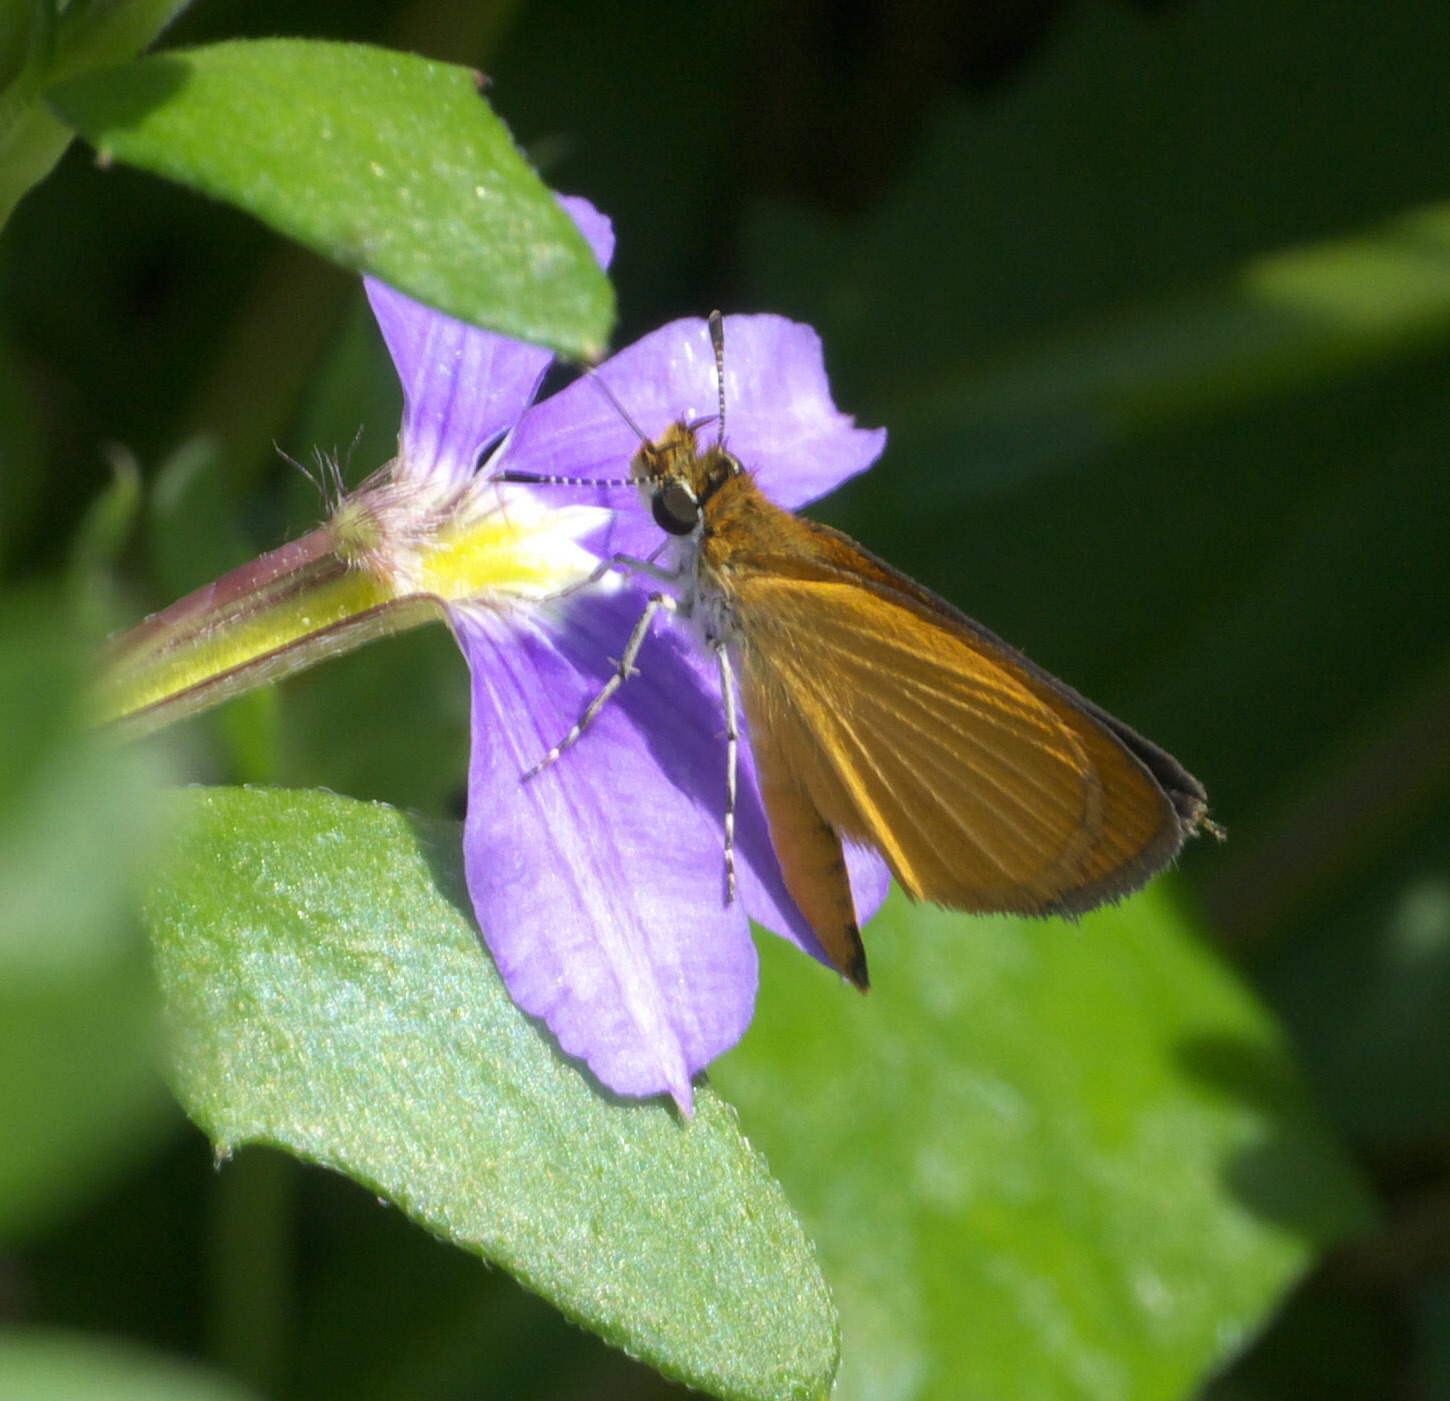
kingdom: Animalia
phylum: Arthropoda
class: Insecta
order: Lepidoptera
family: Hesperiidae
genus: Ancyloxypha
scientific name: Ancyloxypha numitor
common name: Least skipper
